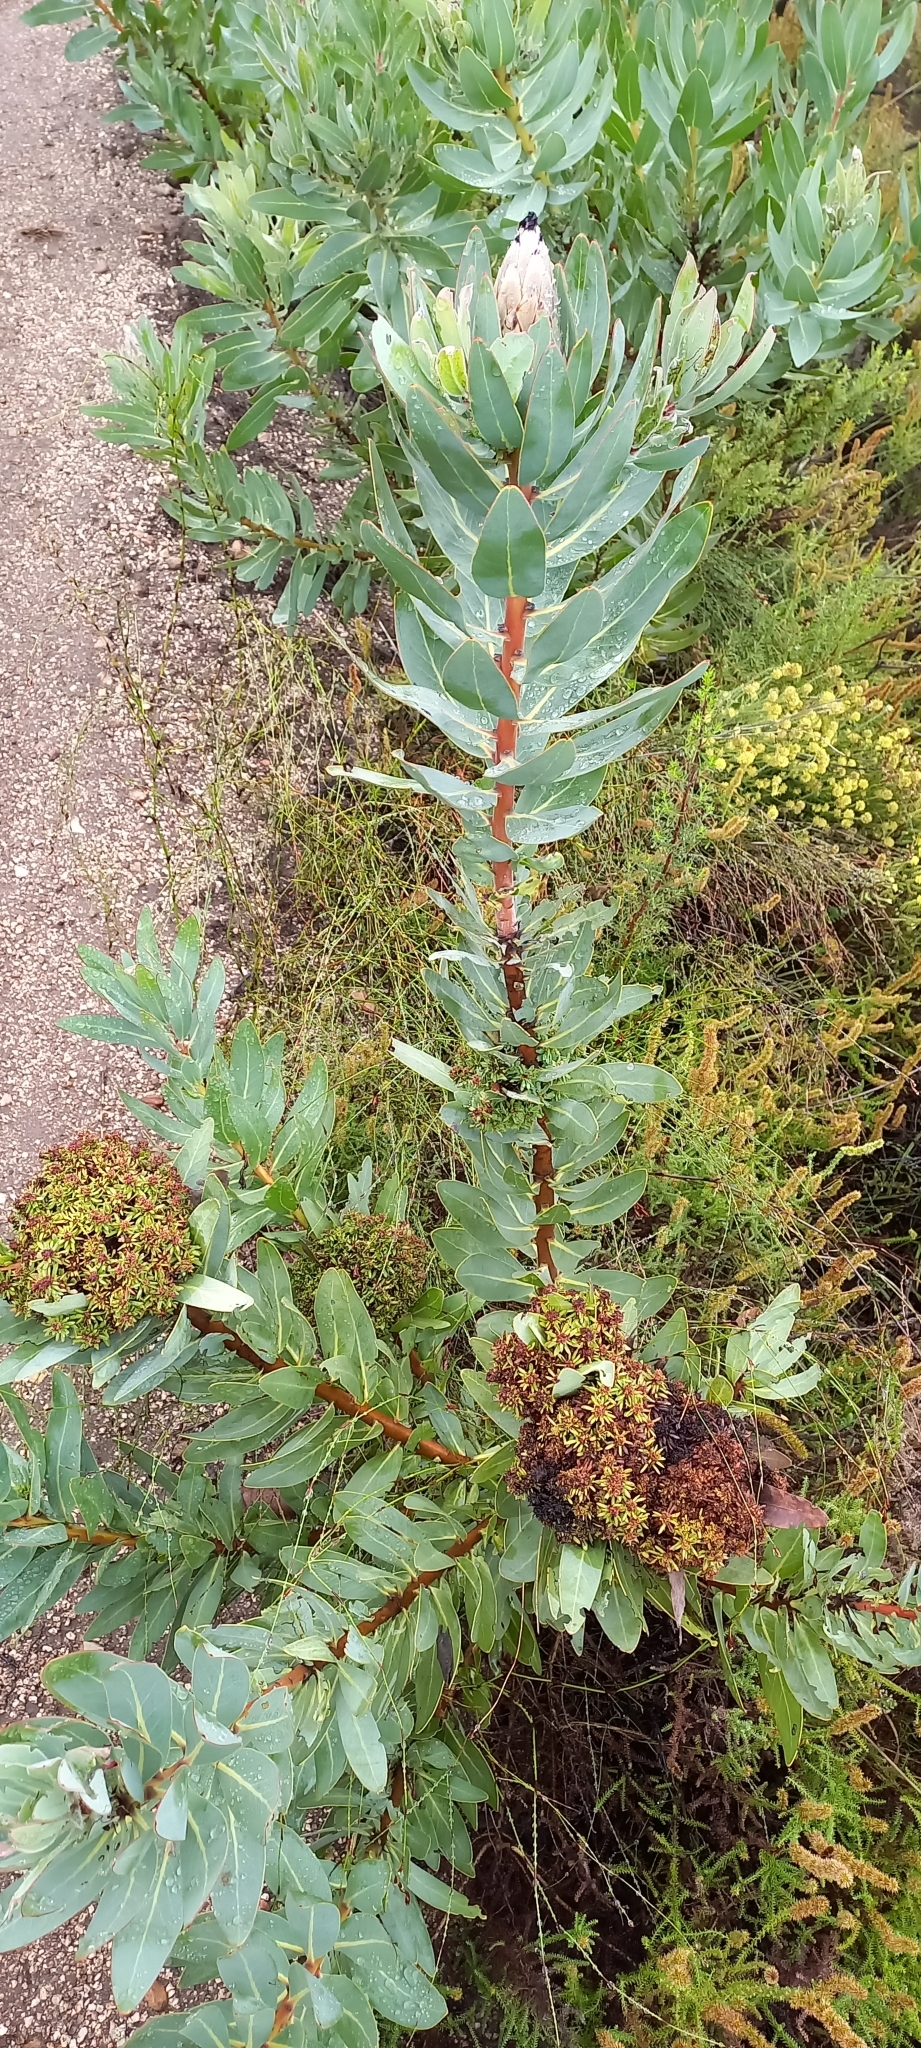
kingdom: Bacteria
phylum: Firmicutes
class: Bacilli
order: Acholeplasmatales
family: Acholeplasmataceae
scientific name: Acholeplasmataceae
